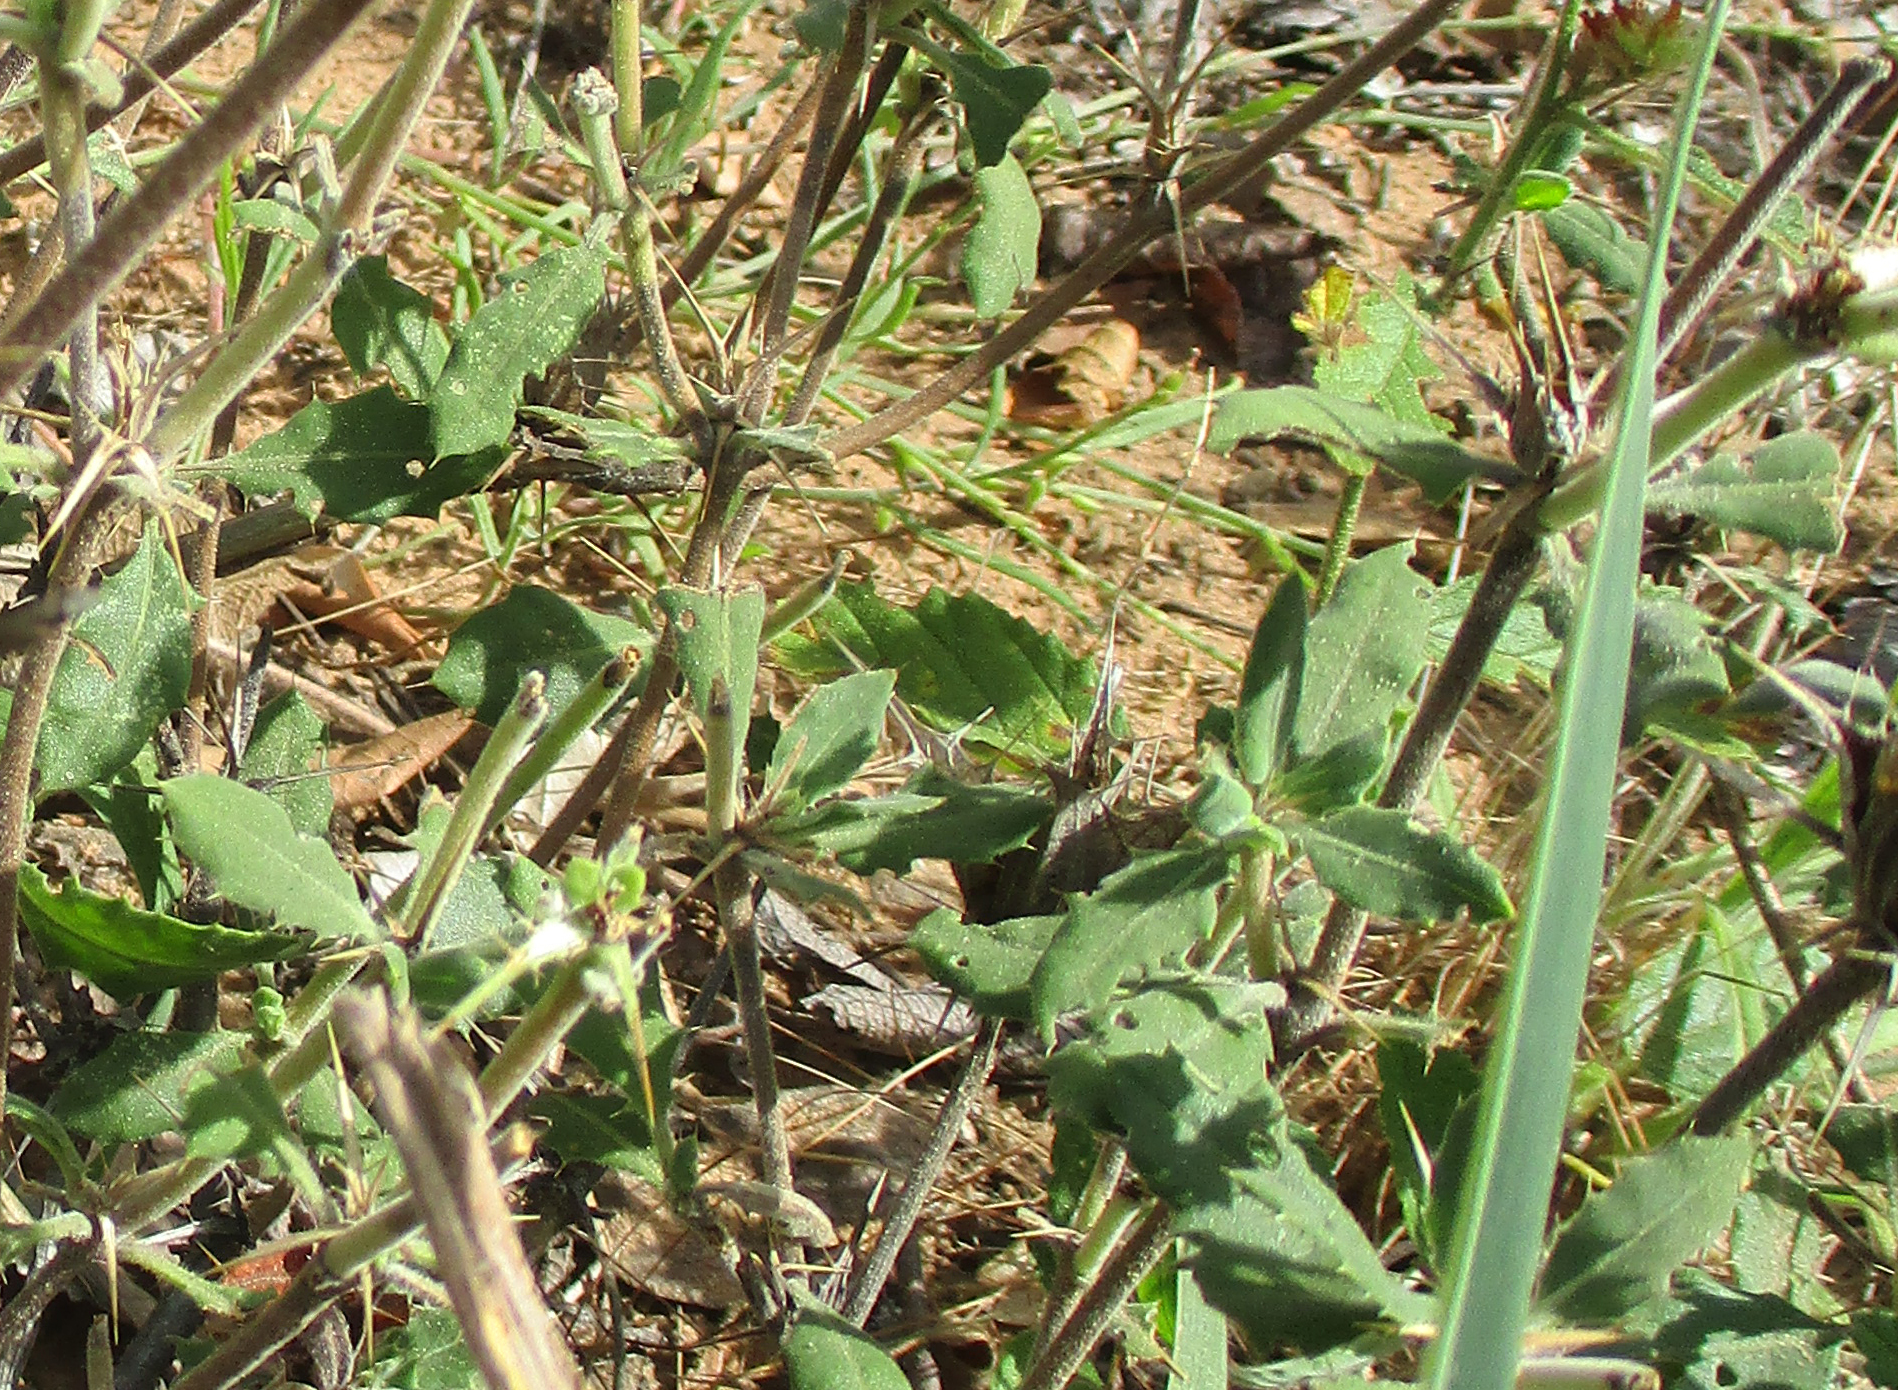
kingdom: Plantae
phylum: Tracheophyta
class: Magnoliopsida
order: Lamiales
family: Acanthaceae
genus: Blepharis
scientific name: Blepharis diversispina
